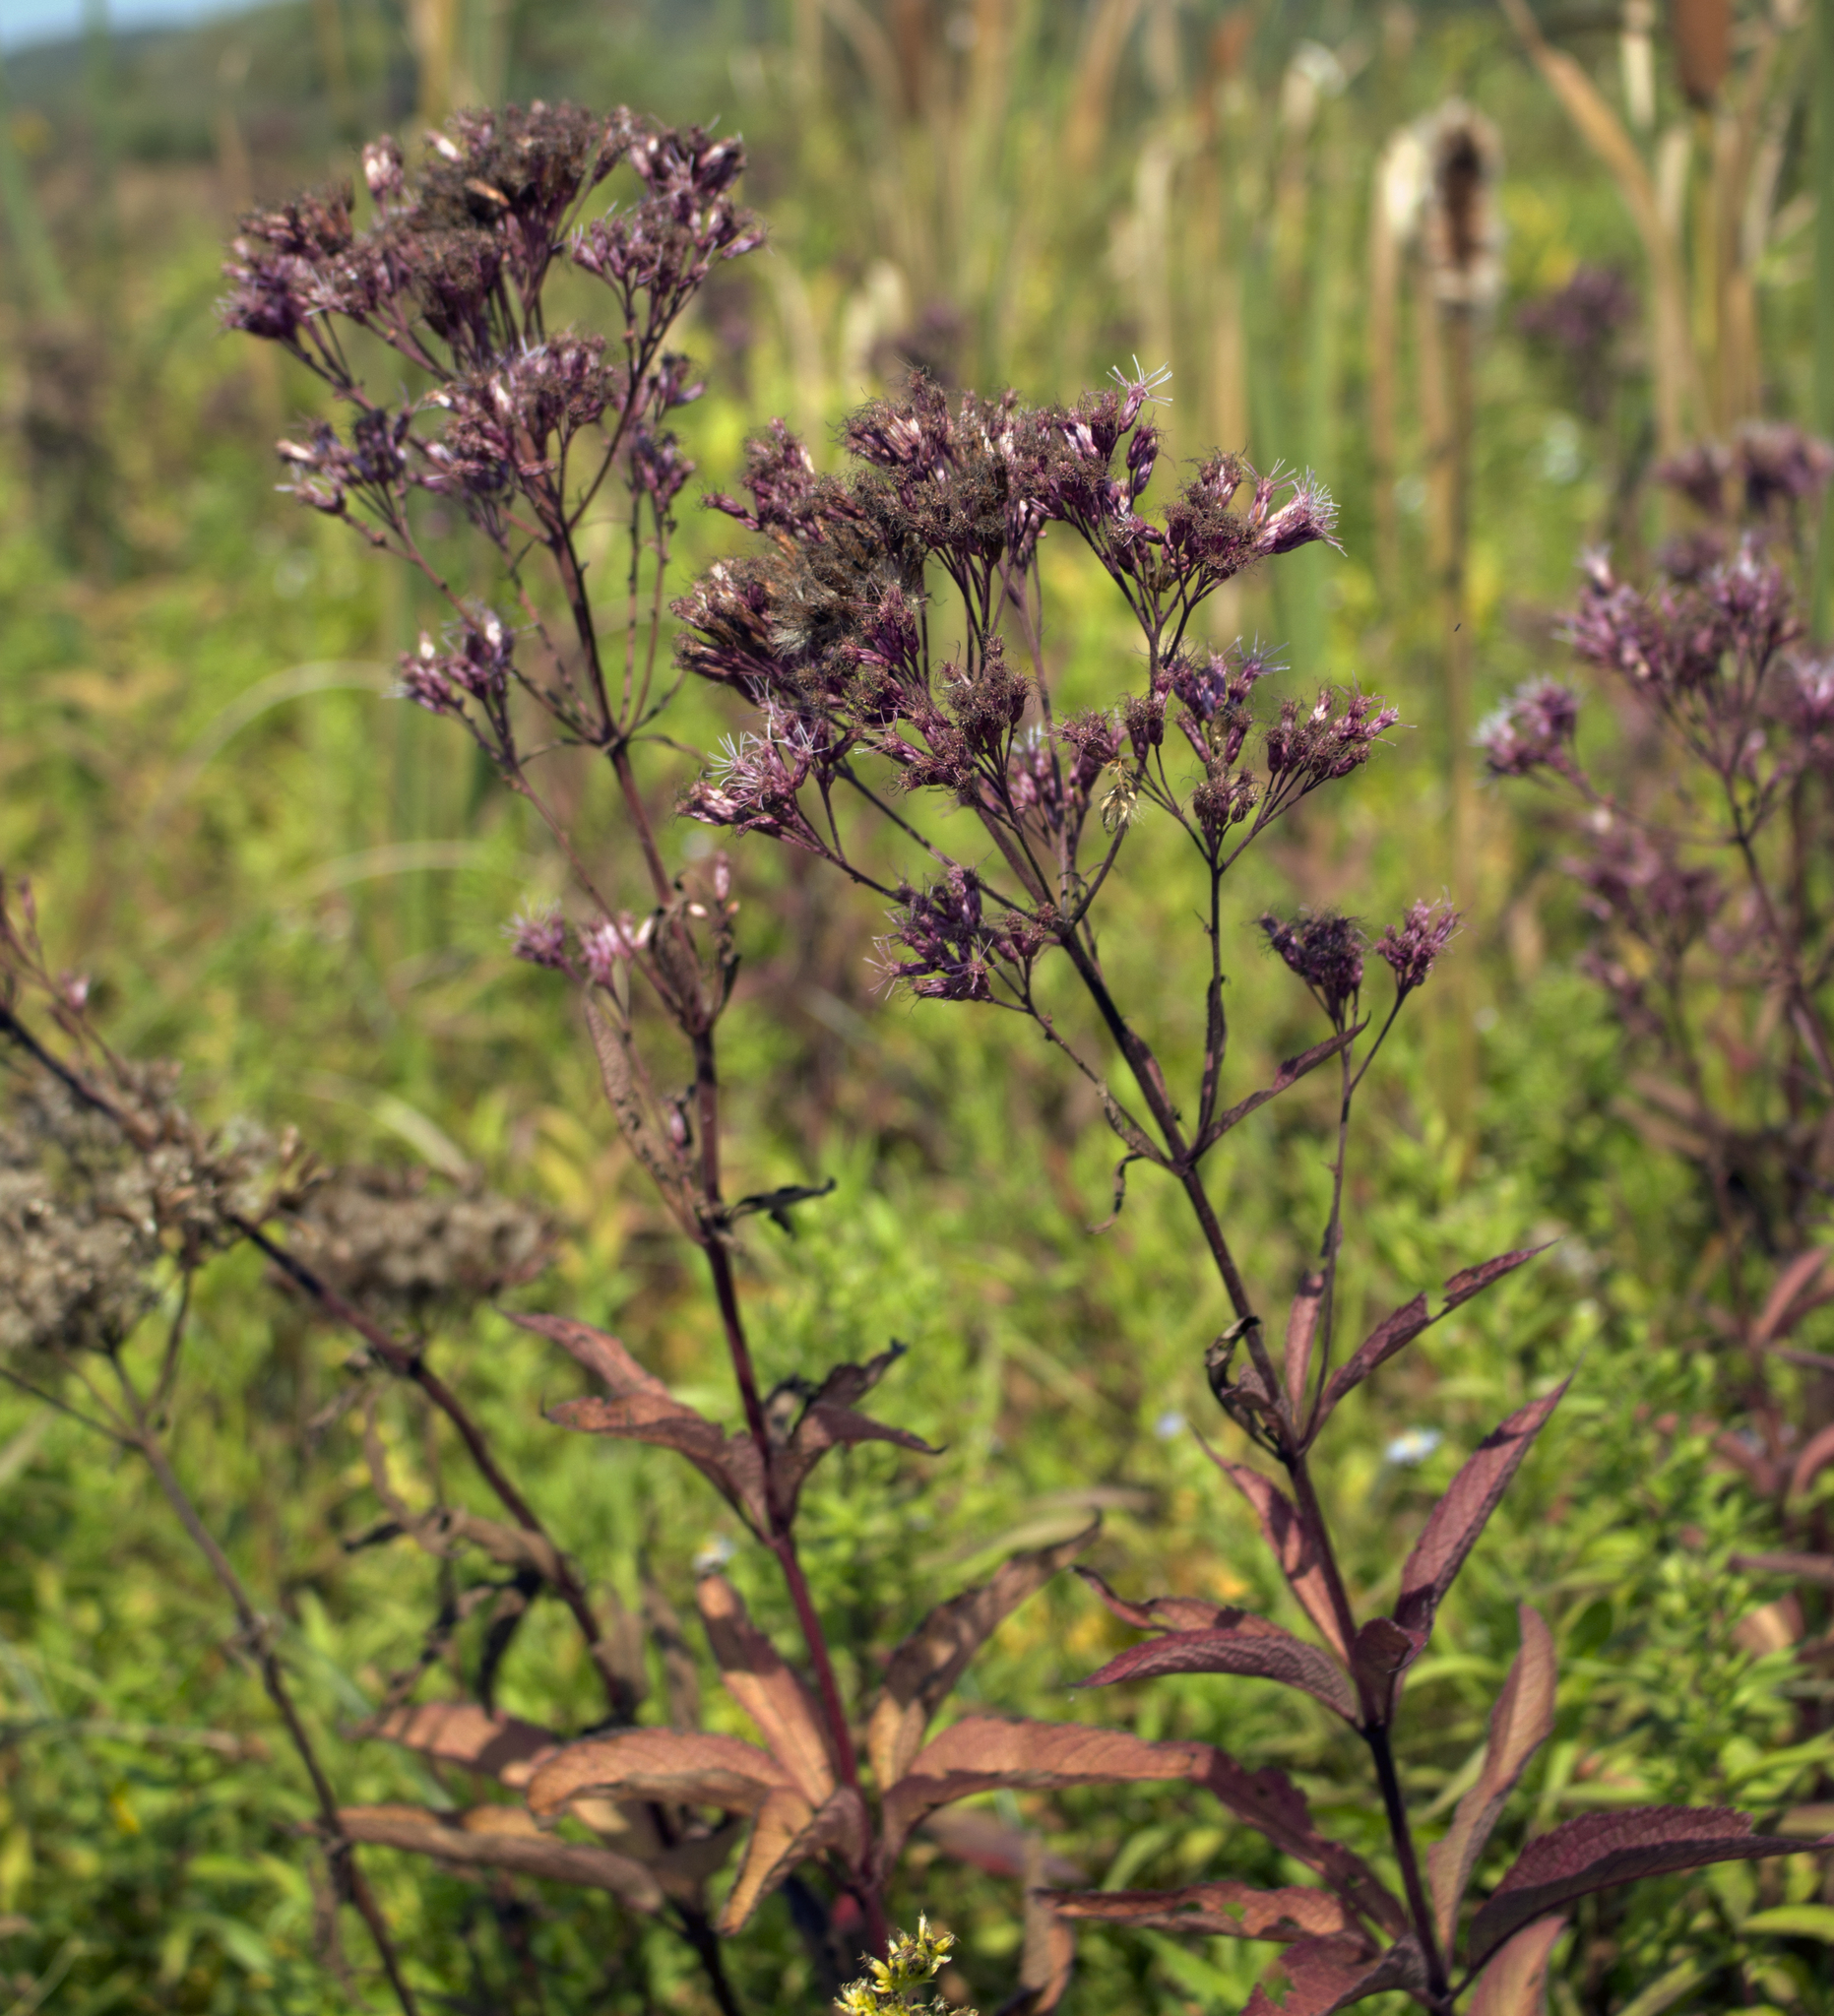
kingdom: Plantae
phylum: Tracheophyta
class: Magnoliopsida
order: Asterales
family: Asteraceae
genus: Eutrochium
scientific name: Eutrochium maculatum
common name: Spotted joe pye weed
